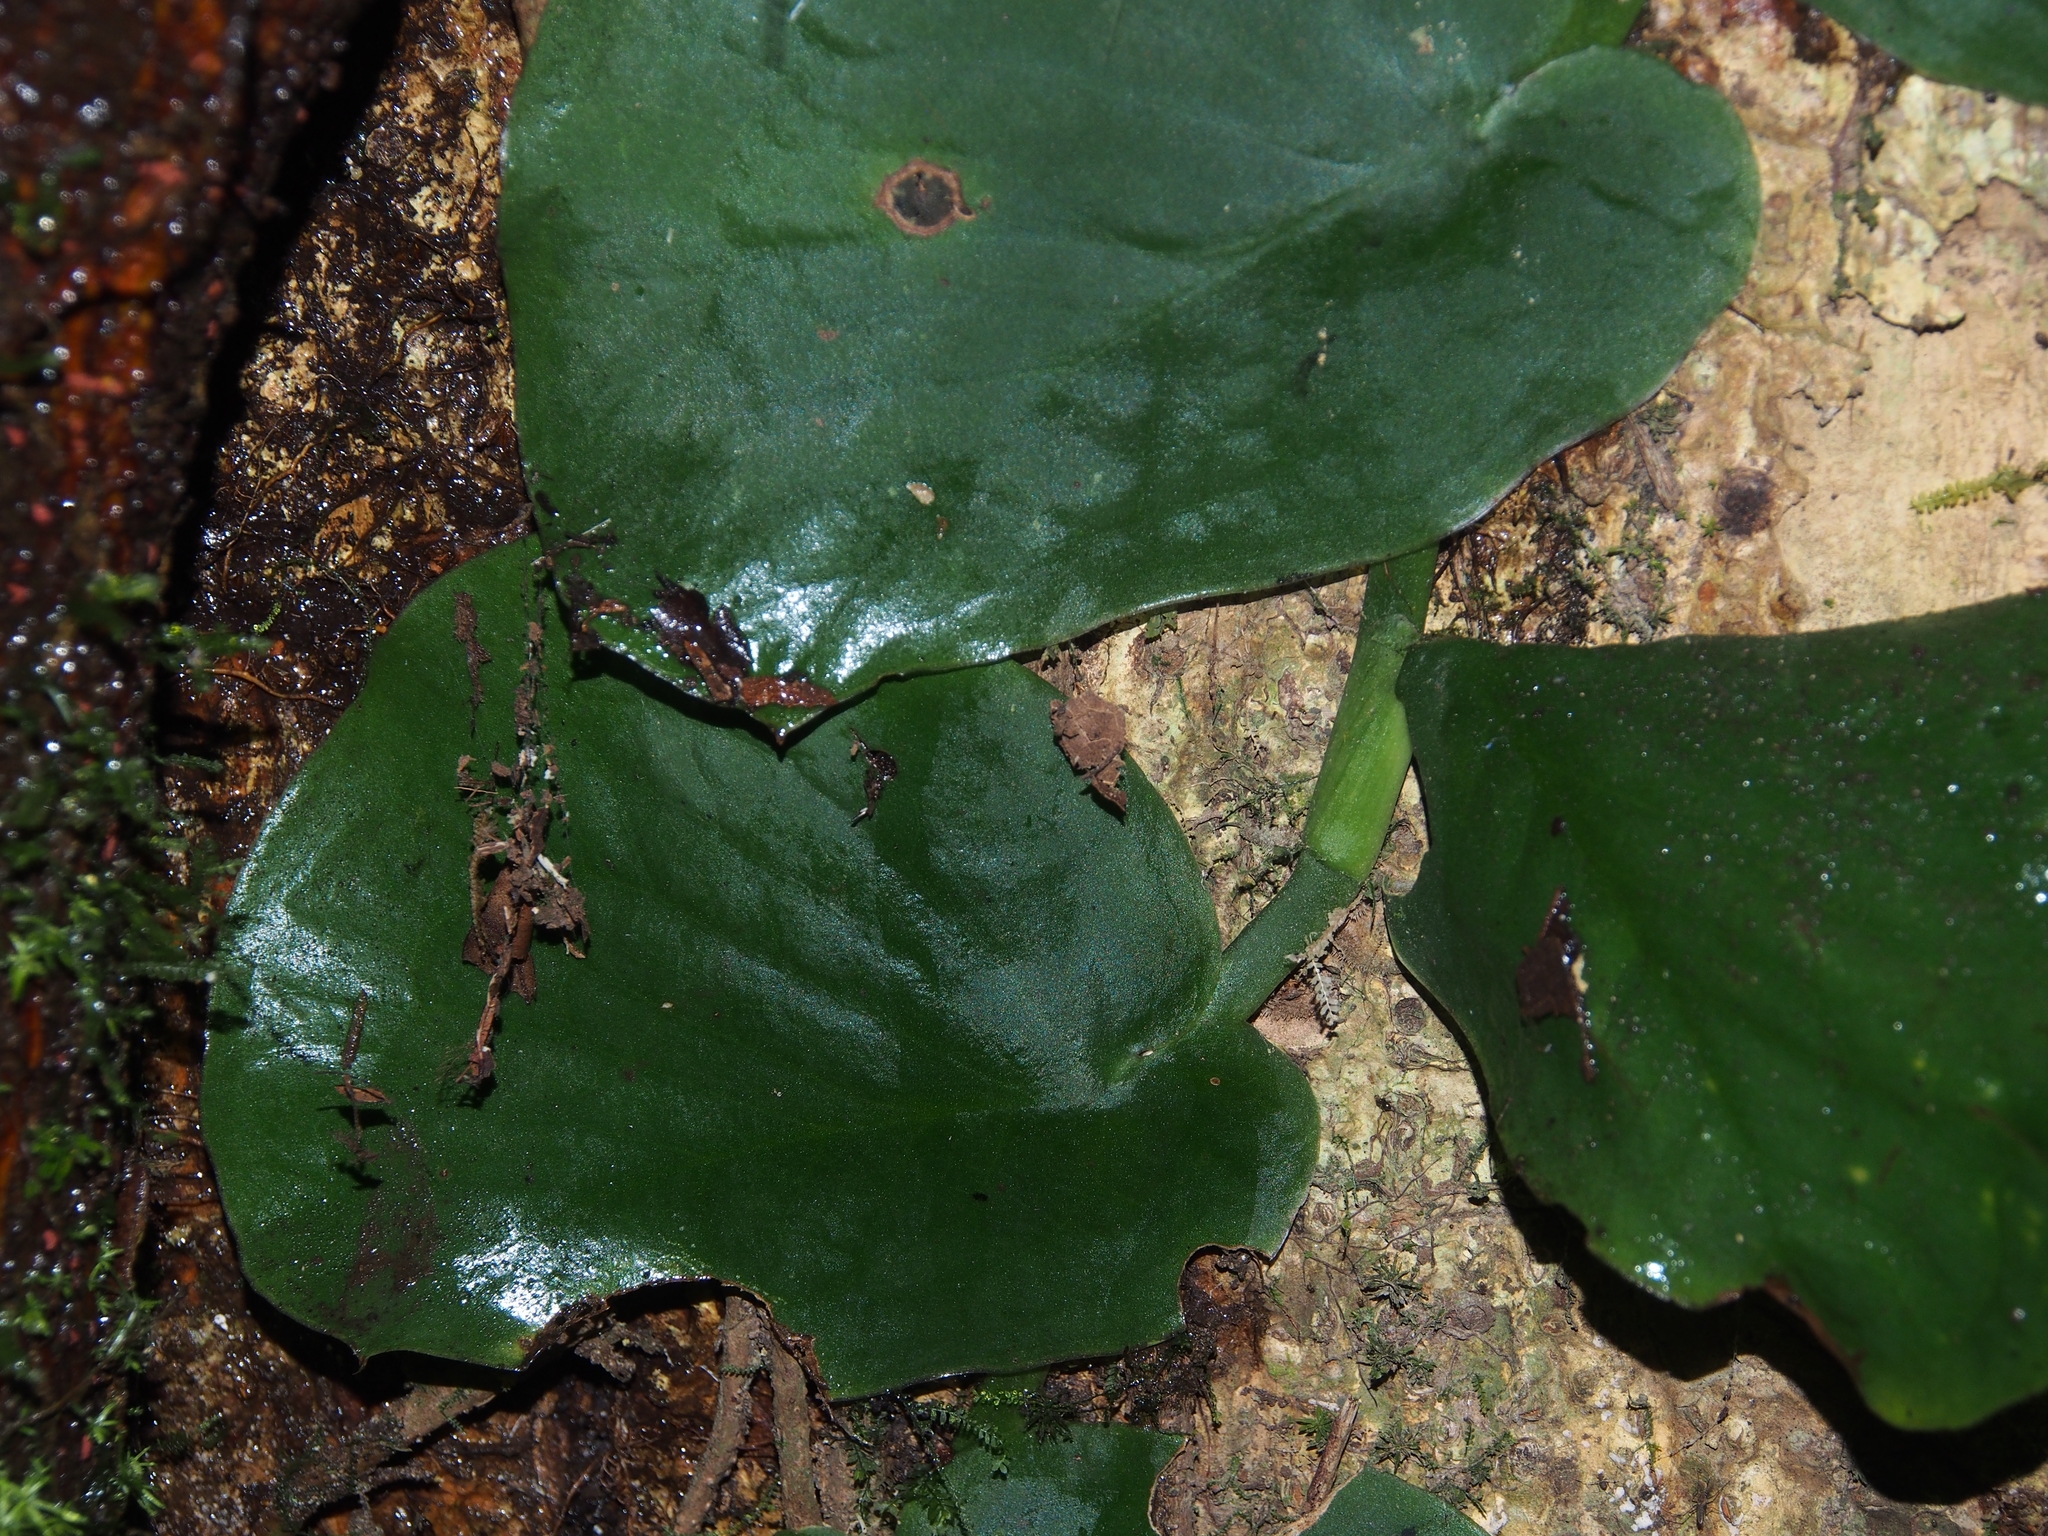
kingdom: Plantae
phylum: Tracheophyta
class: Liliopsida
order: Alismatales
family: Araceae
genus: Monstera
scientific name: Monstera tenuis
